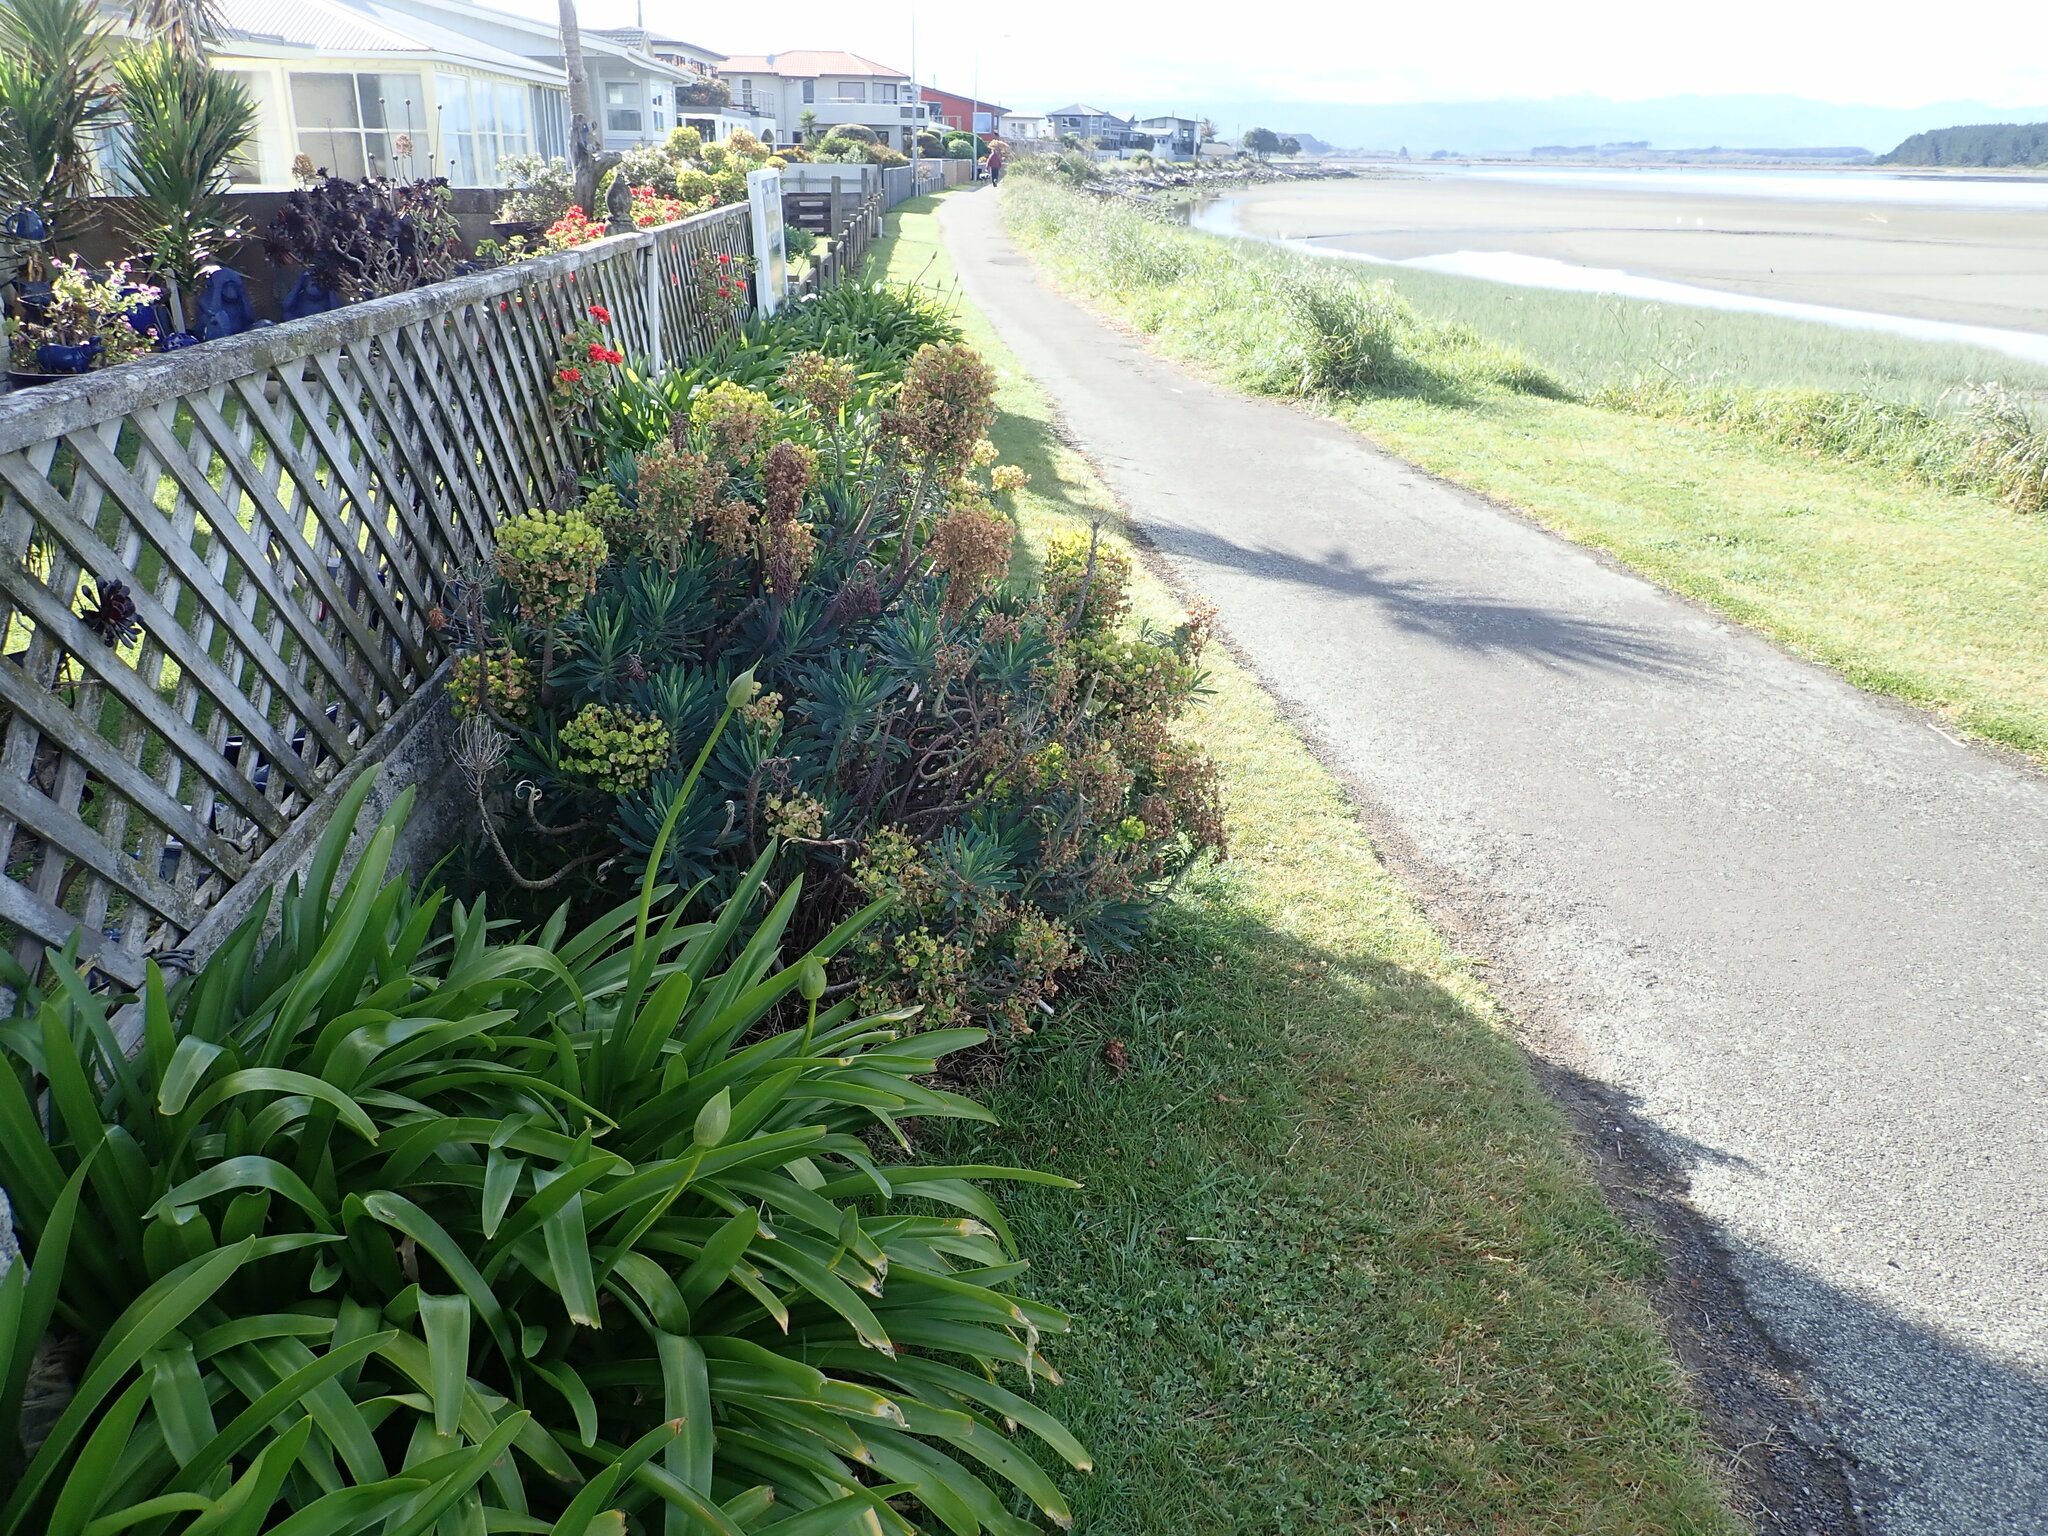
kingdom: Plantae
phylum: Tracheophyta
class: Magnoliopsida
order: Malpighiales
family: Euphorbiaceae
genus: Euphorbia
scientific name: Euphorbia characias
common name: Mediterranean spurge
